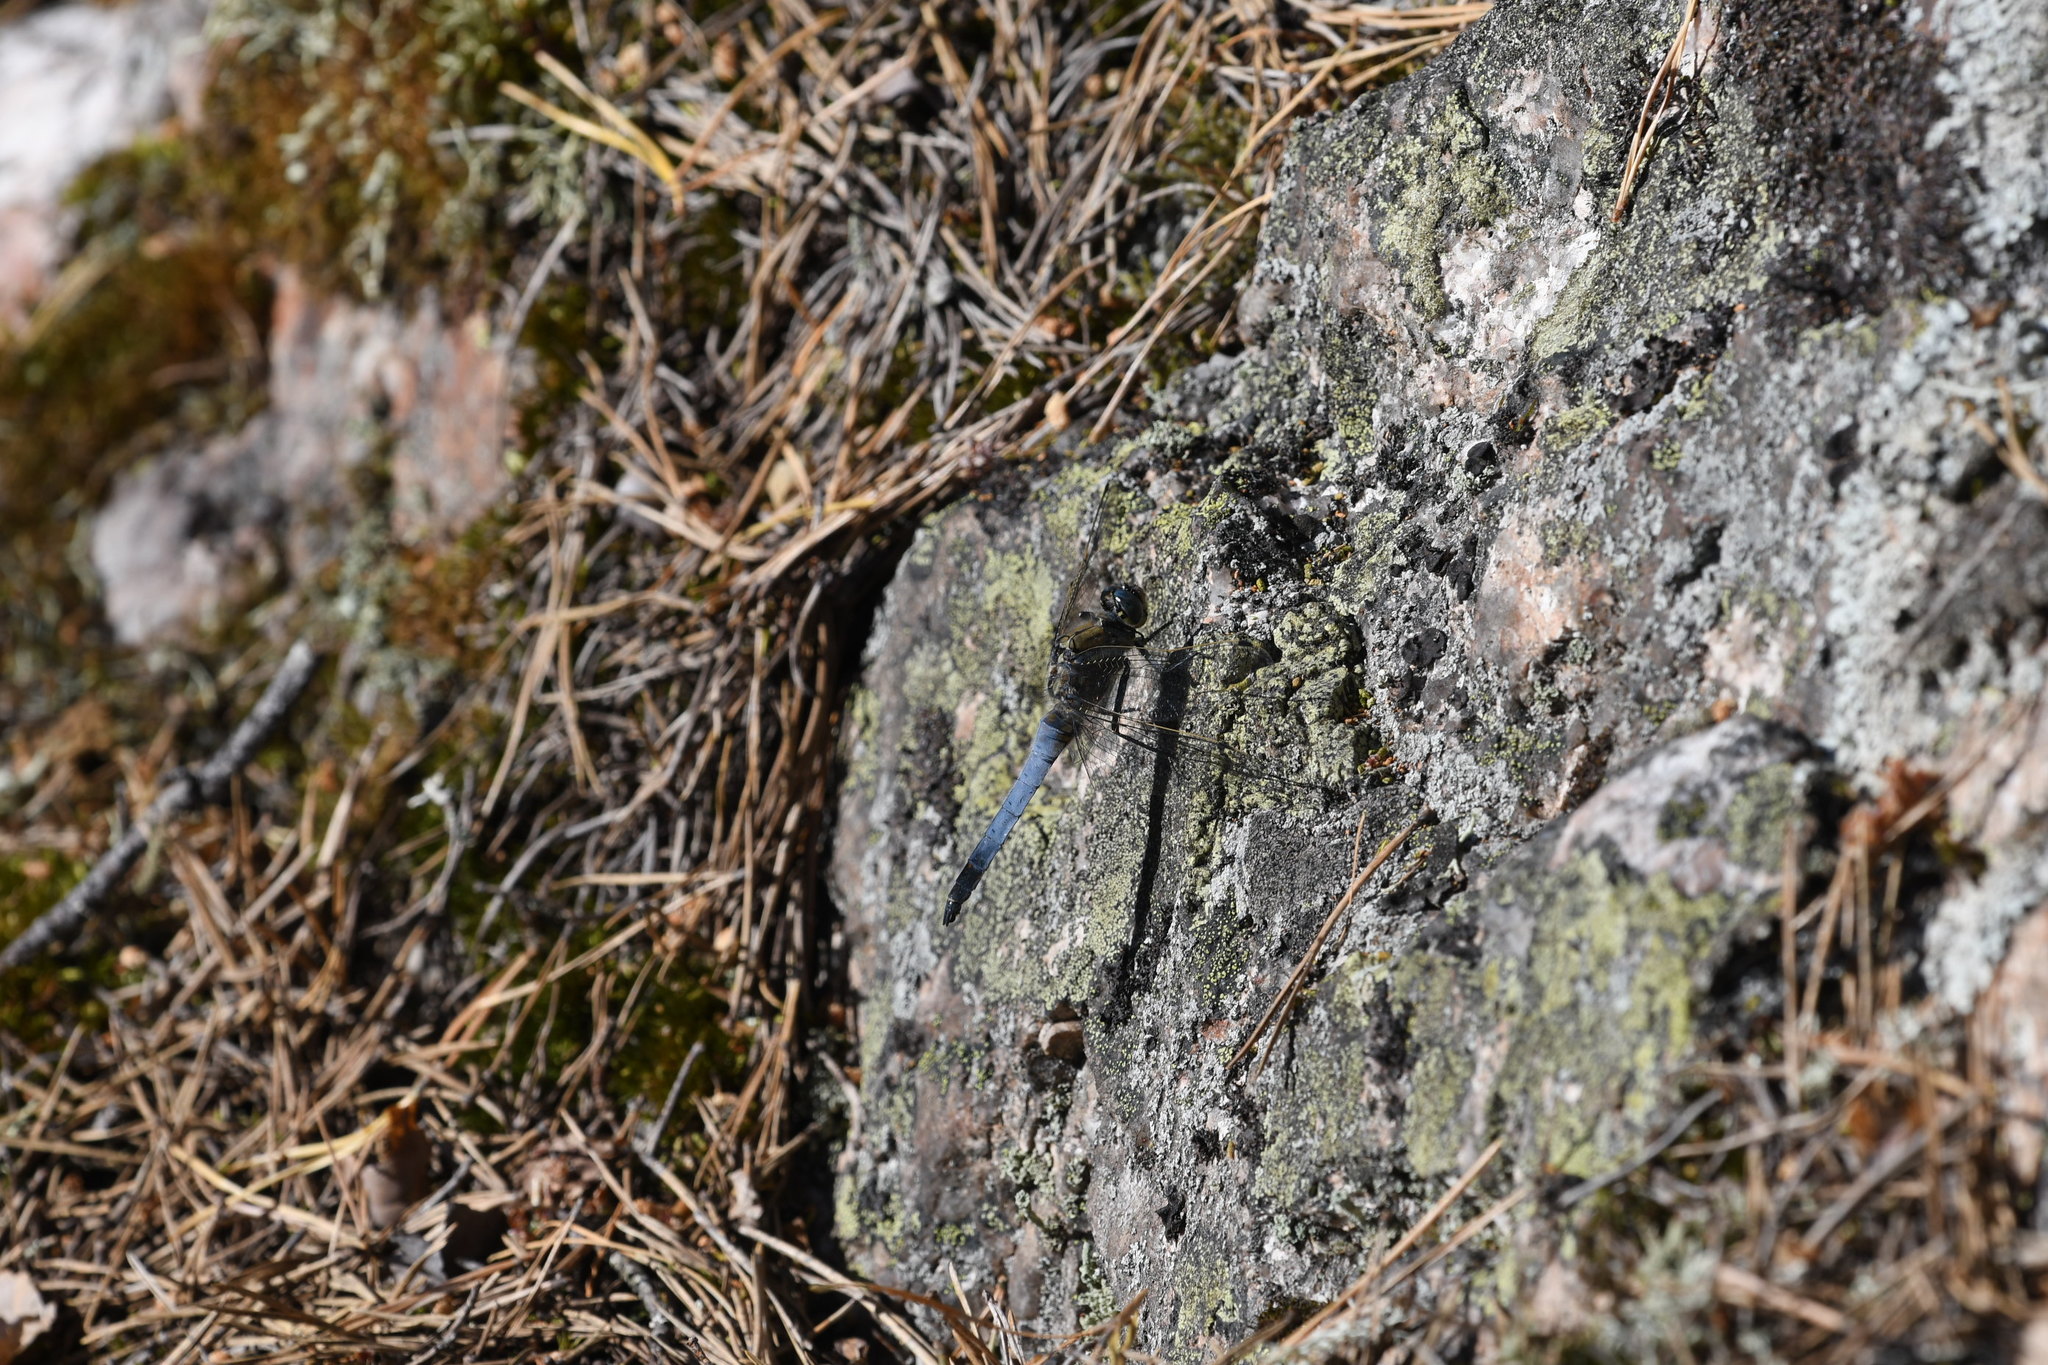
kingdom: Animalia
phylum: Arthropoda
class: Insecta
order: Odonata
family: Libellulidae
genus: Orthetrum
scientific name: Orthetrum cancellatum
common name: Black-tailed skimmer
